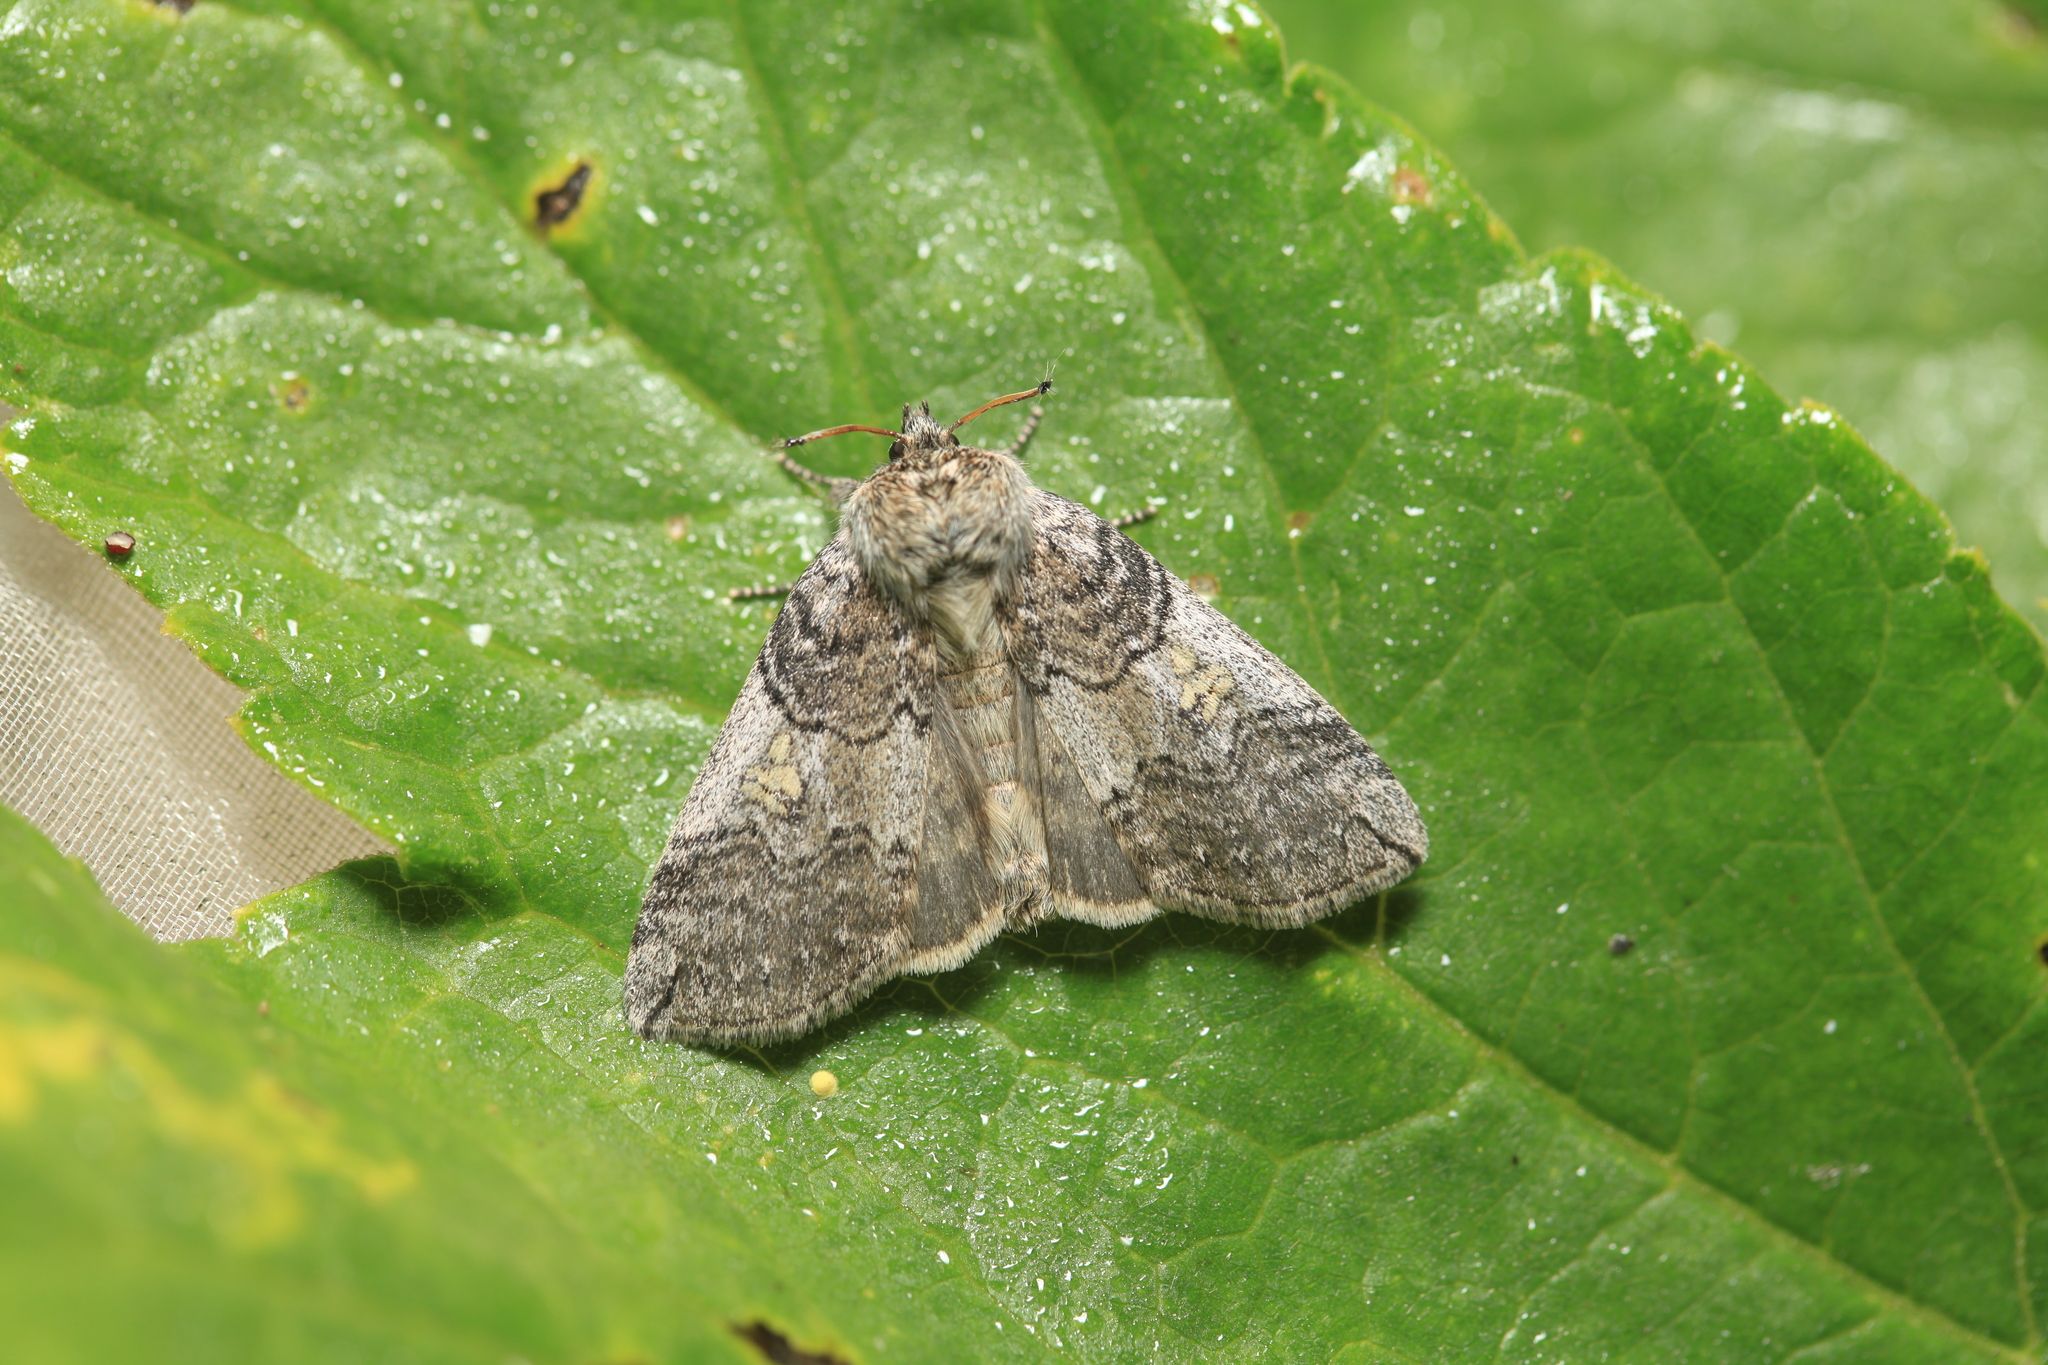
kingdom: Animalia
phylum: Arthropoda
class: Insecta
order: Lepidoptera
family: Drepanidae
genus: Tethea
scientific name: Tethea or
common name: Poplar lutestring
